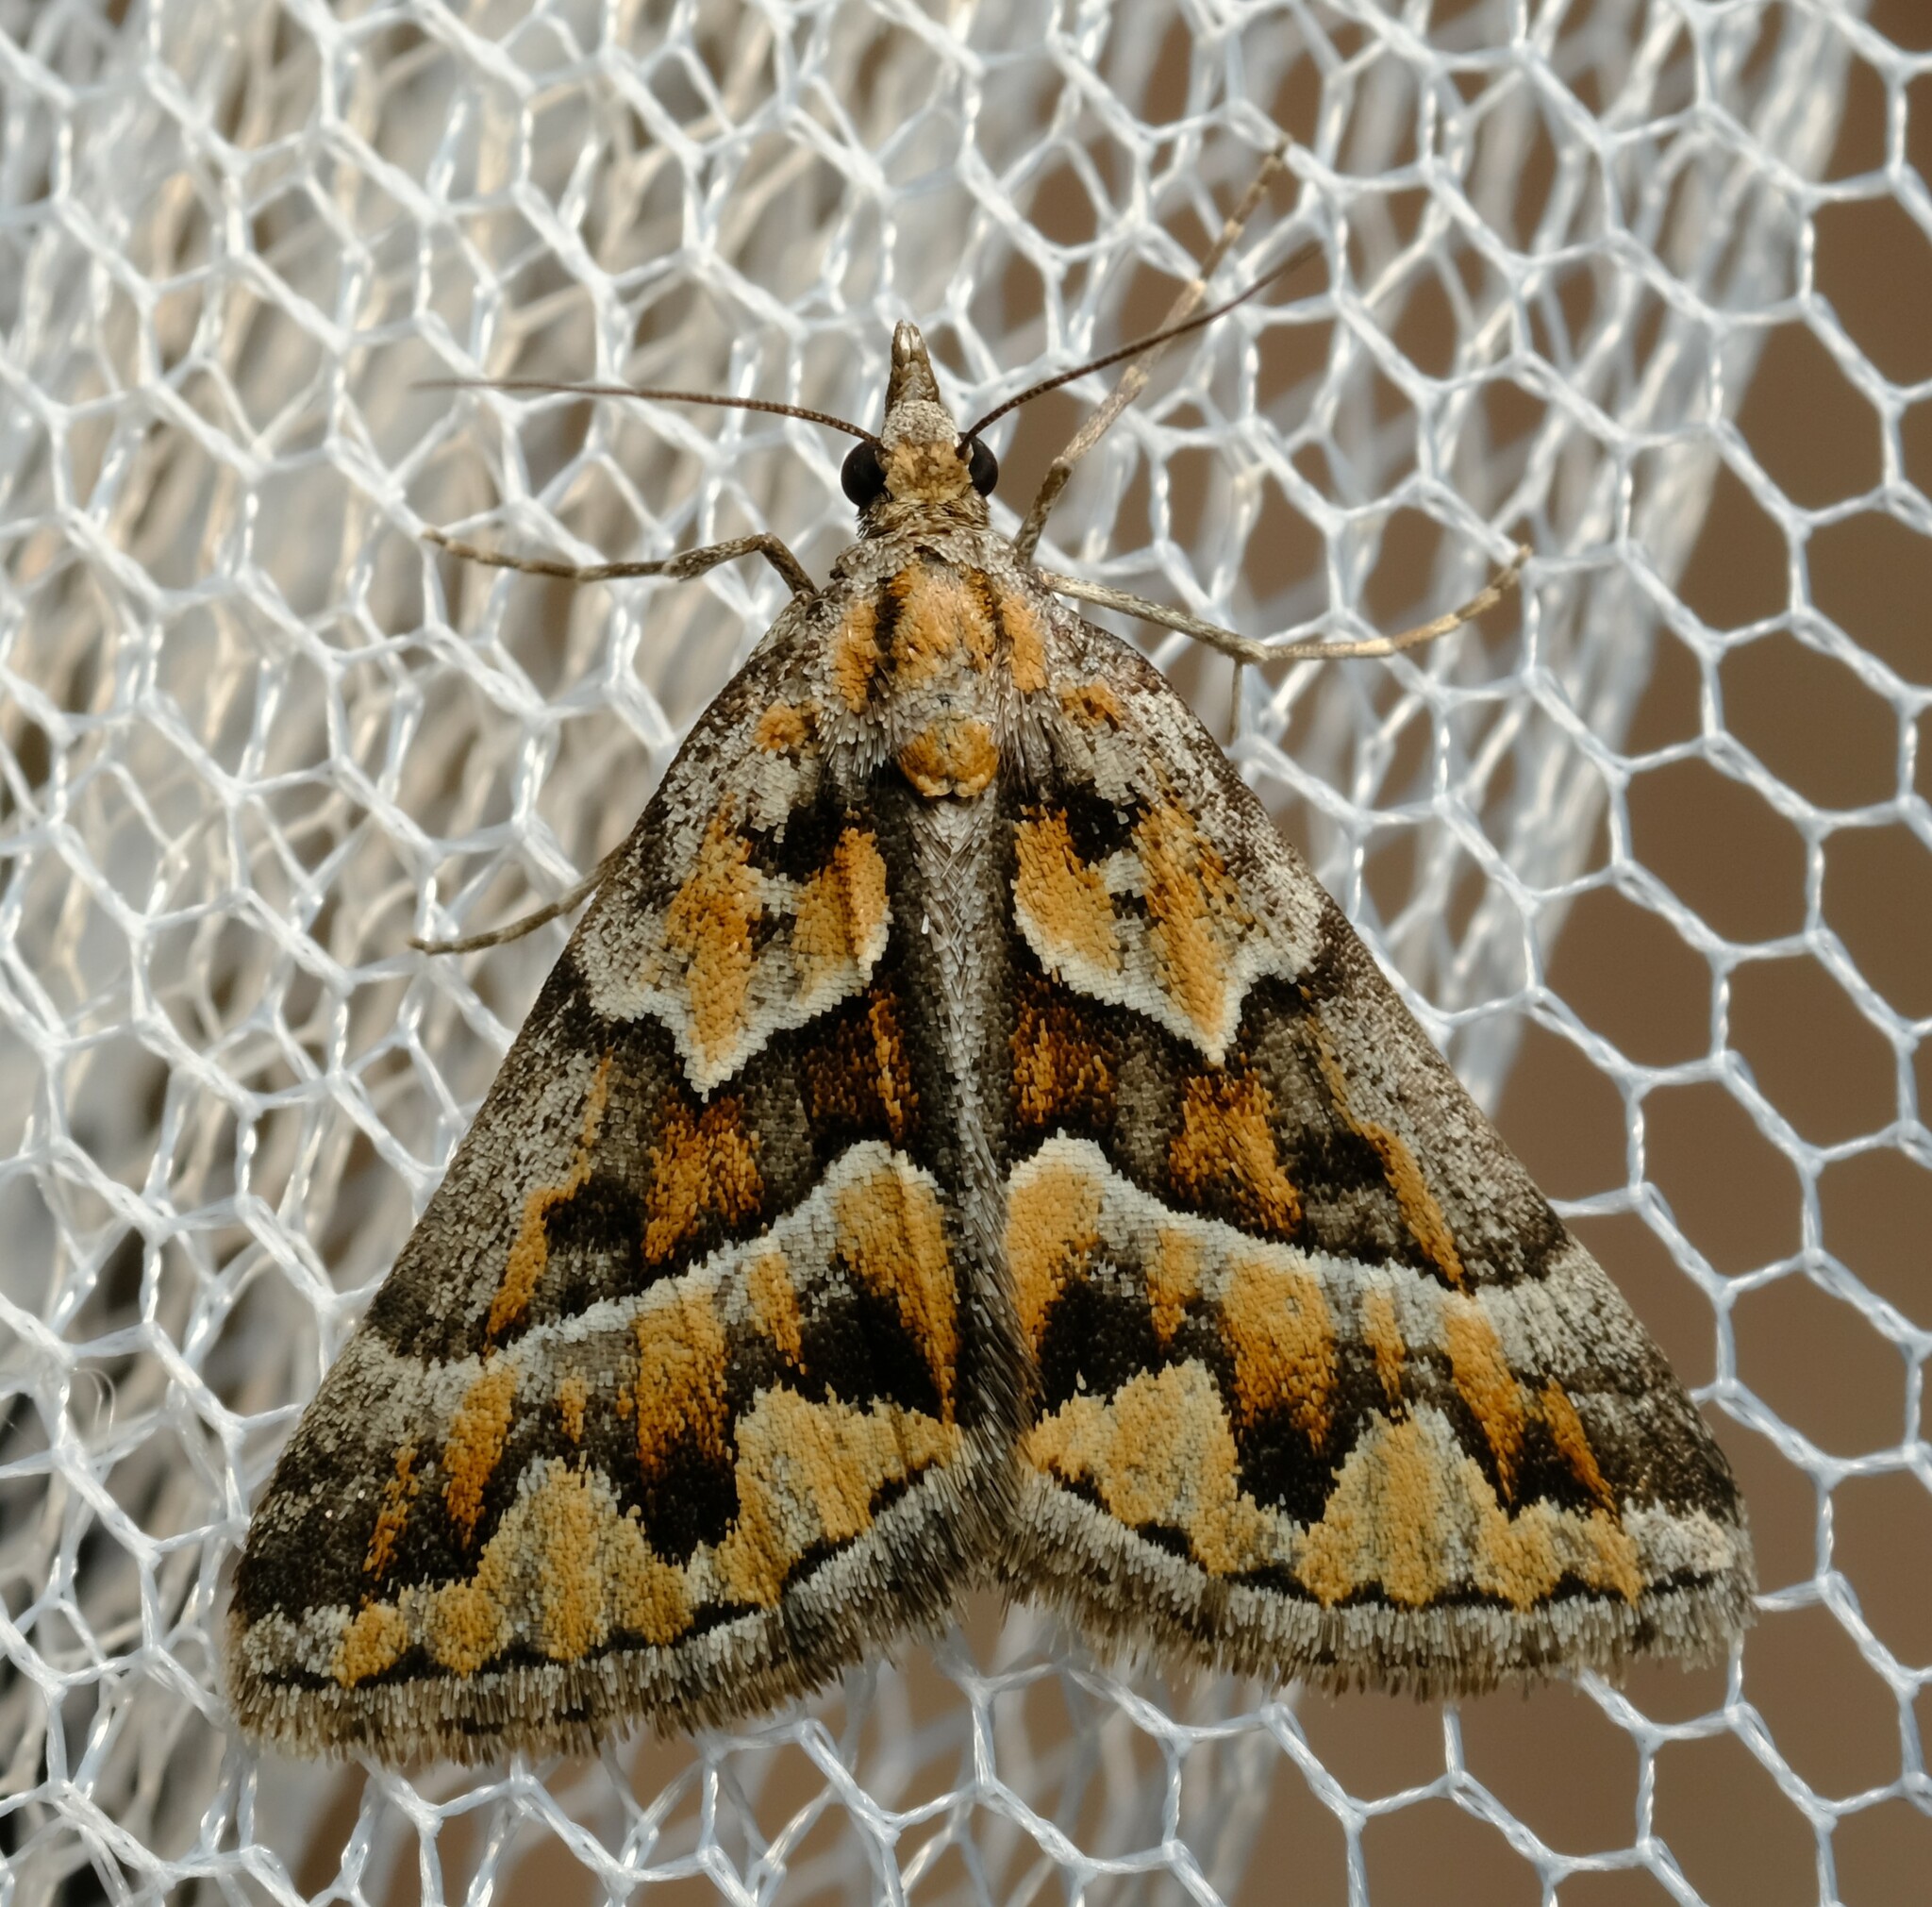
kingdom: Animalia
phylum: Arthropoda
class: Insecta
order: Lepidoptera
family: Geometridae
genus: Dichromodes
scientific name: Dichromodes poecilotis
